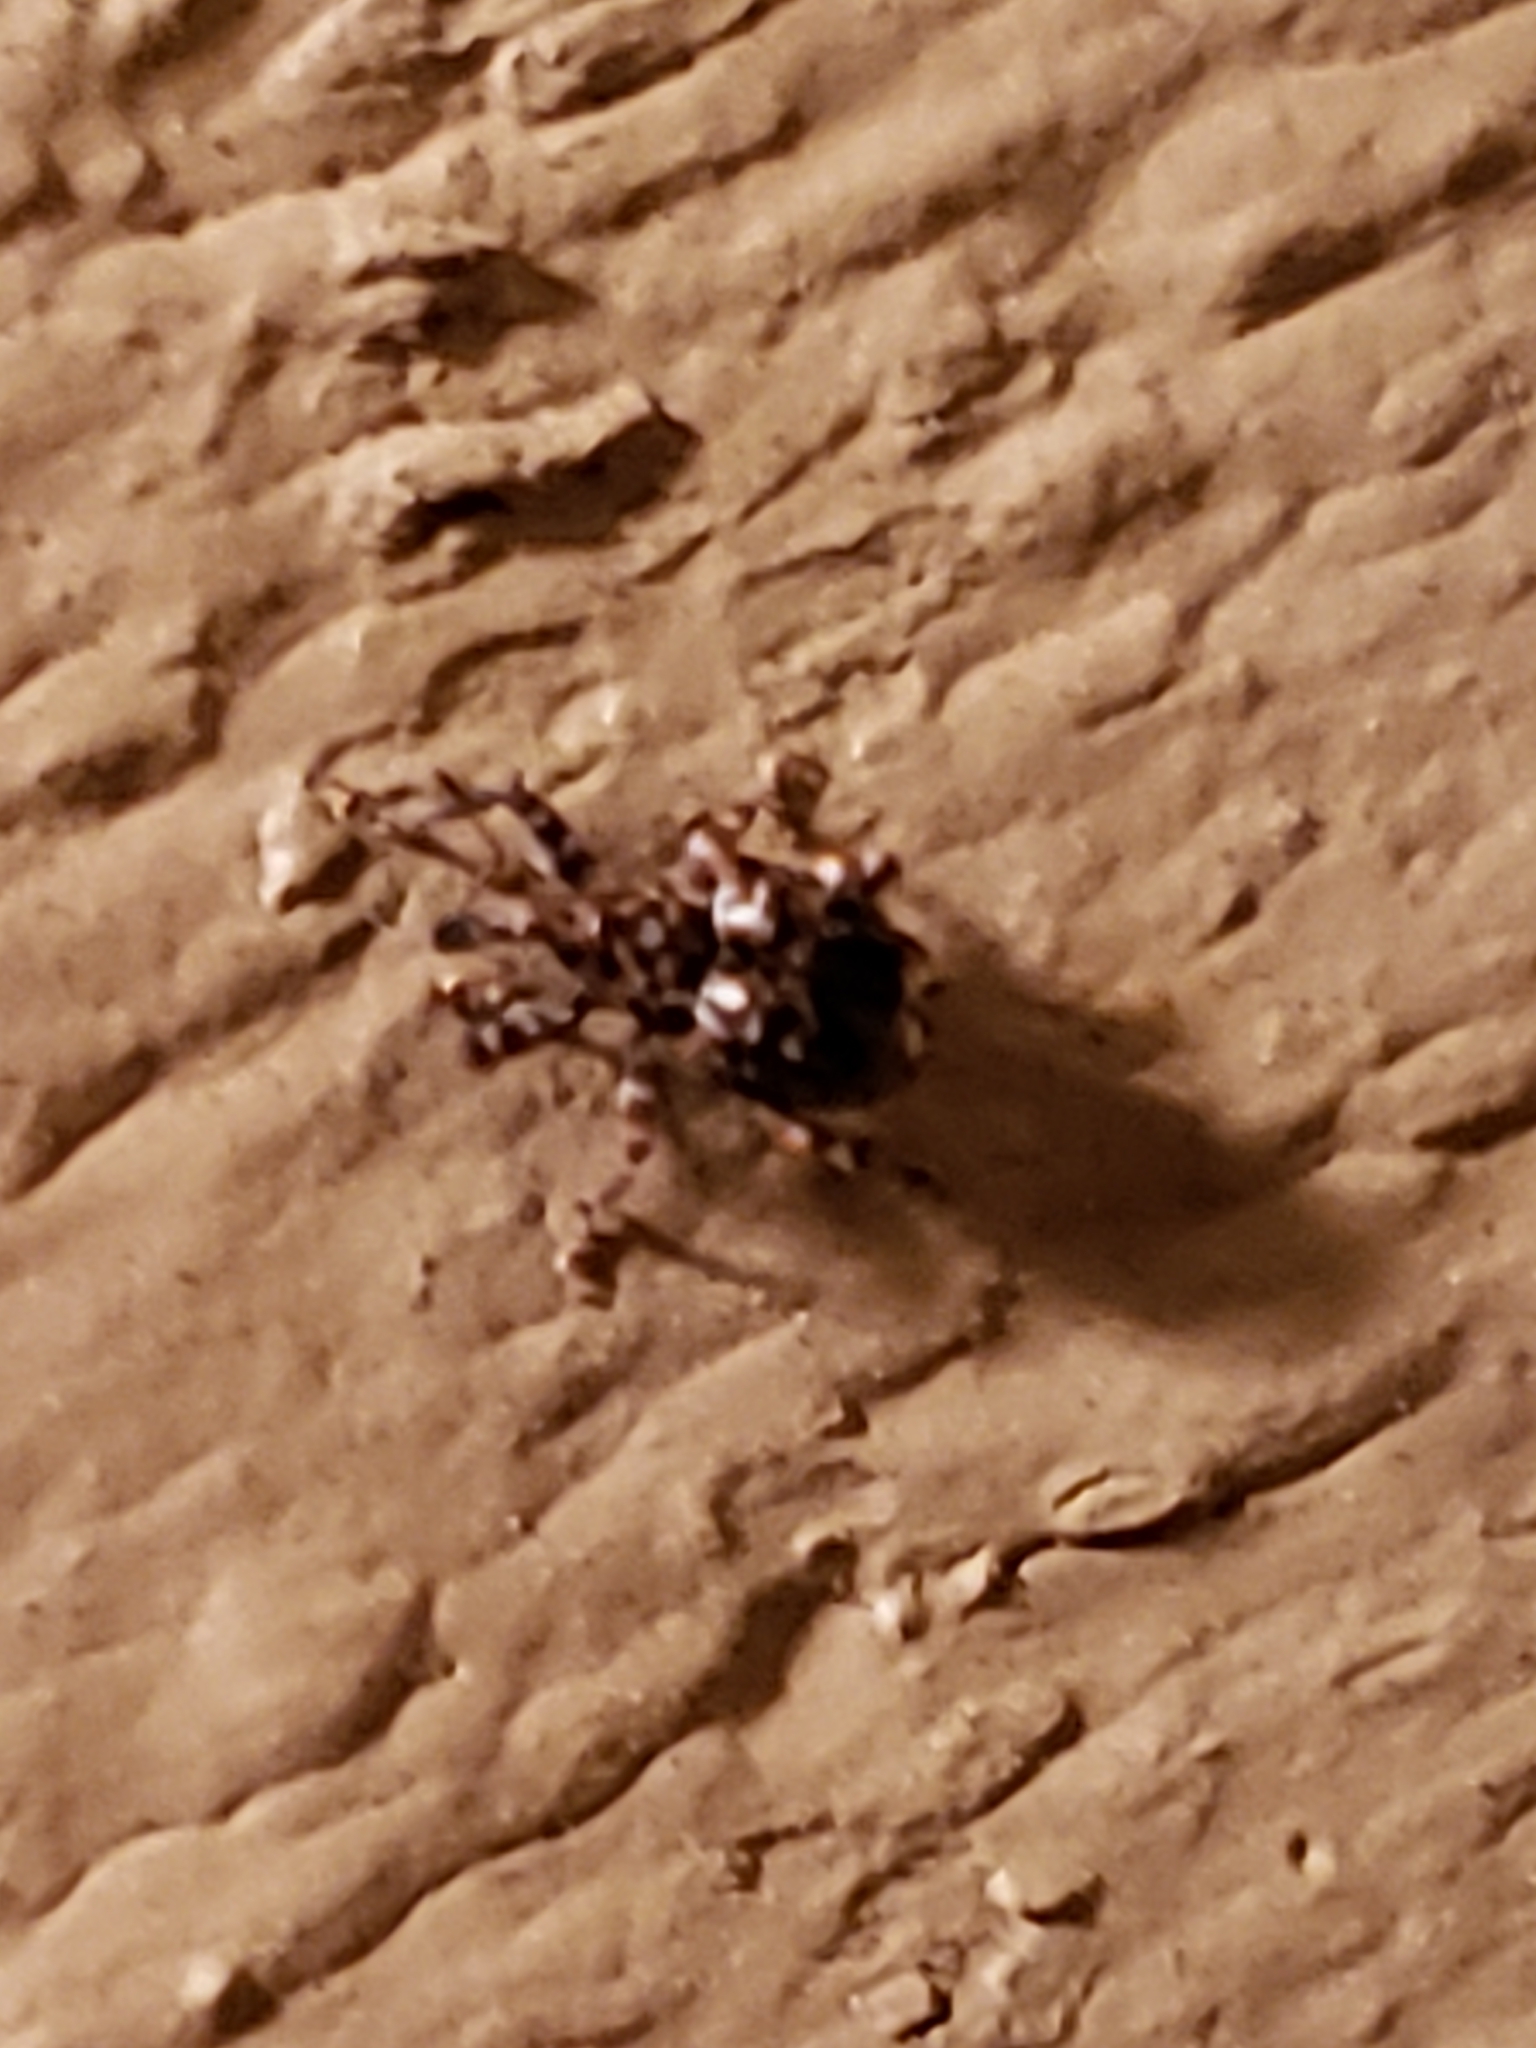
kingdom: Animalia
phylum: Arthropoda
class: Insecta
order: Coleoptera
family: Curculionidae
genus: Conotrachelus
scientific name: Conotrachelus nenuphar
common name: Plum curculio
